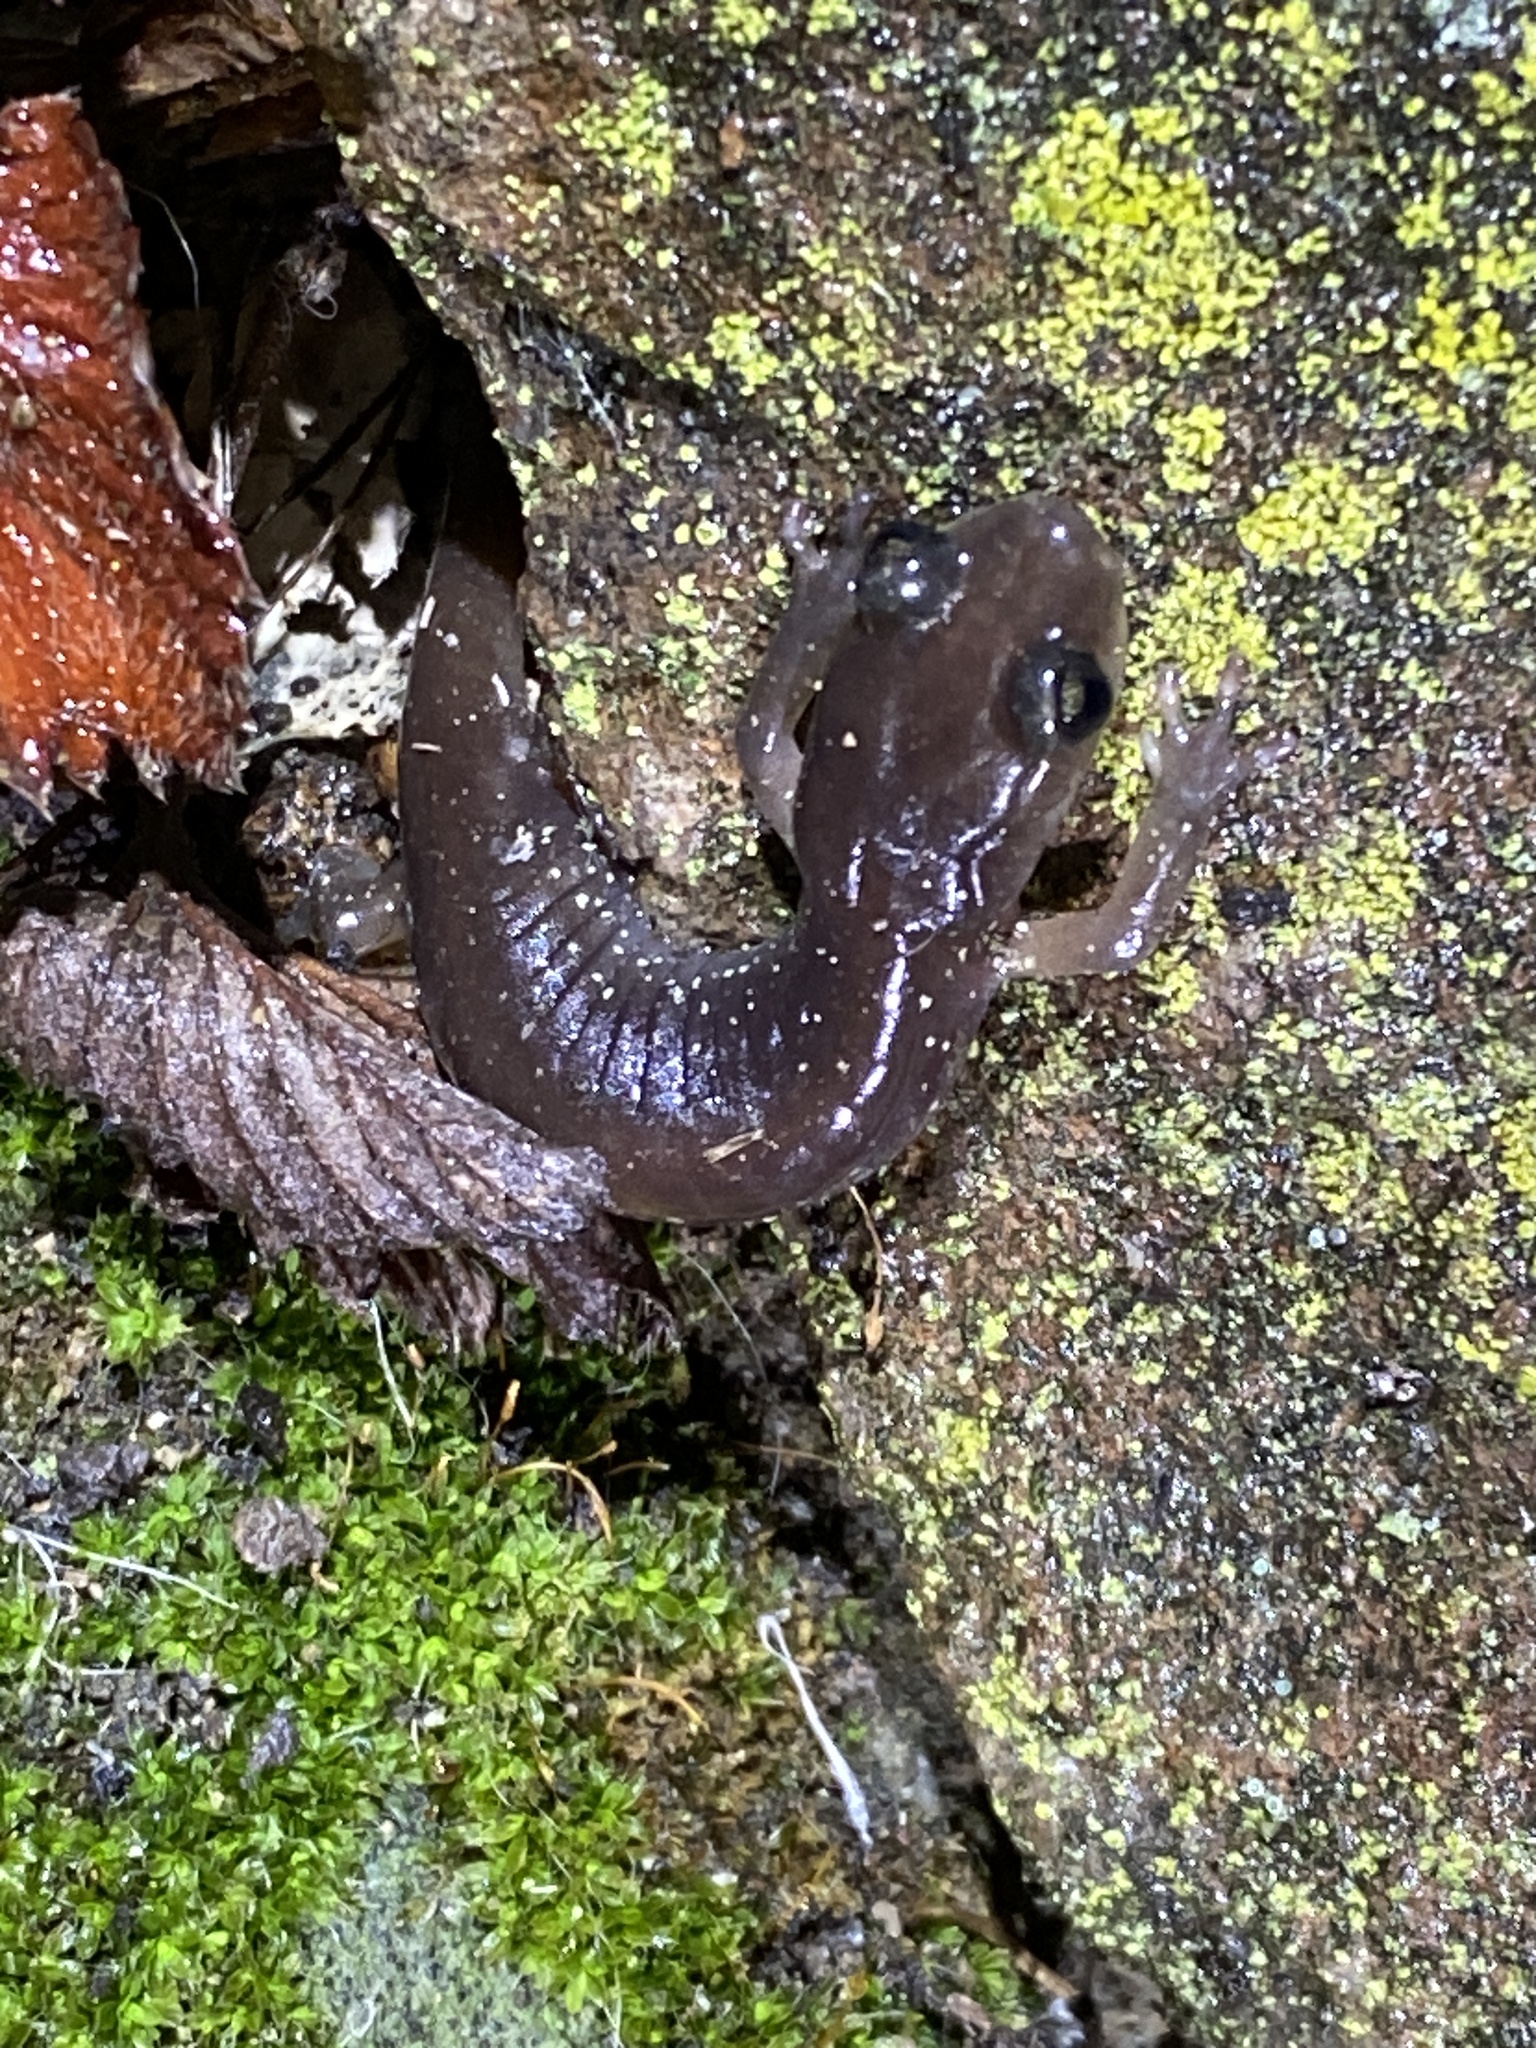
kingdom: Animalia
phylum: Chordata
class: Amphibia
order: Caudata
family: Plethodontidae
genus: Aneides
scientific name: Aneides lugubris
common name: Arboreal salamander
